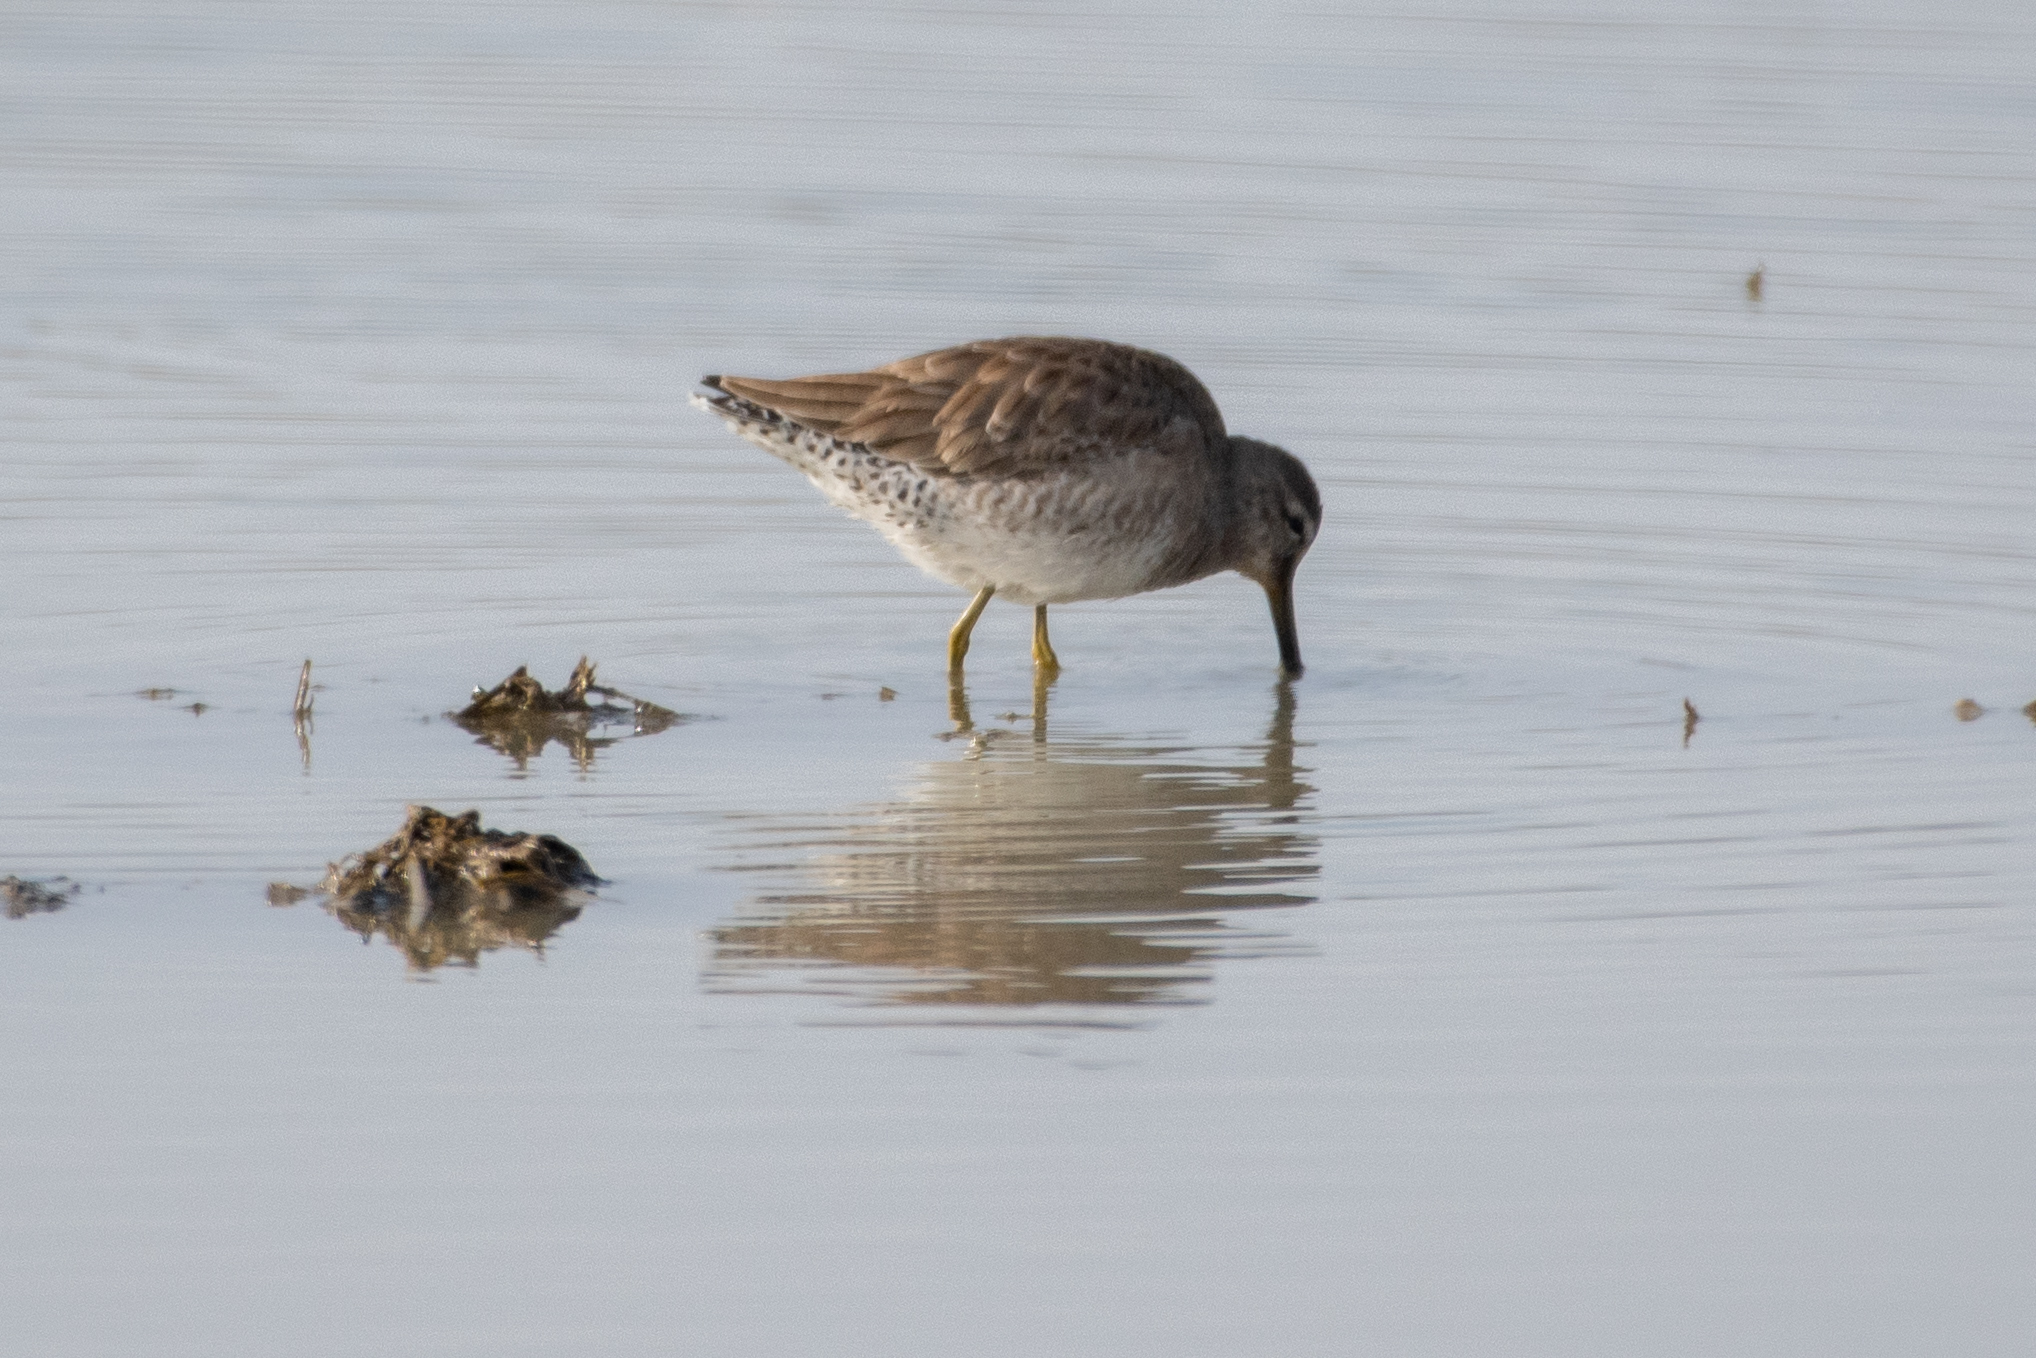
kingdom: Animalia
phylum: Chordata
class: Aves
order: Charadriiformes
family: Scolopacidae
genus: Limnodromus
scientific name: Limnodromus scolopaceus
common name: Long-billed dowitcher
